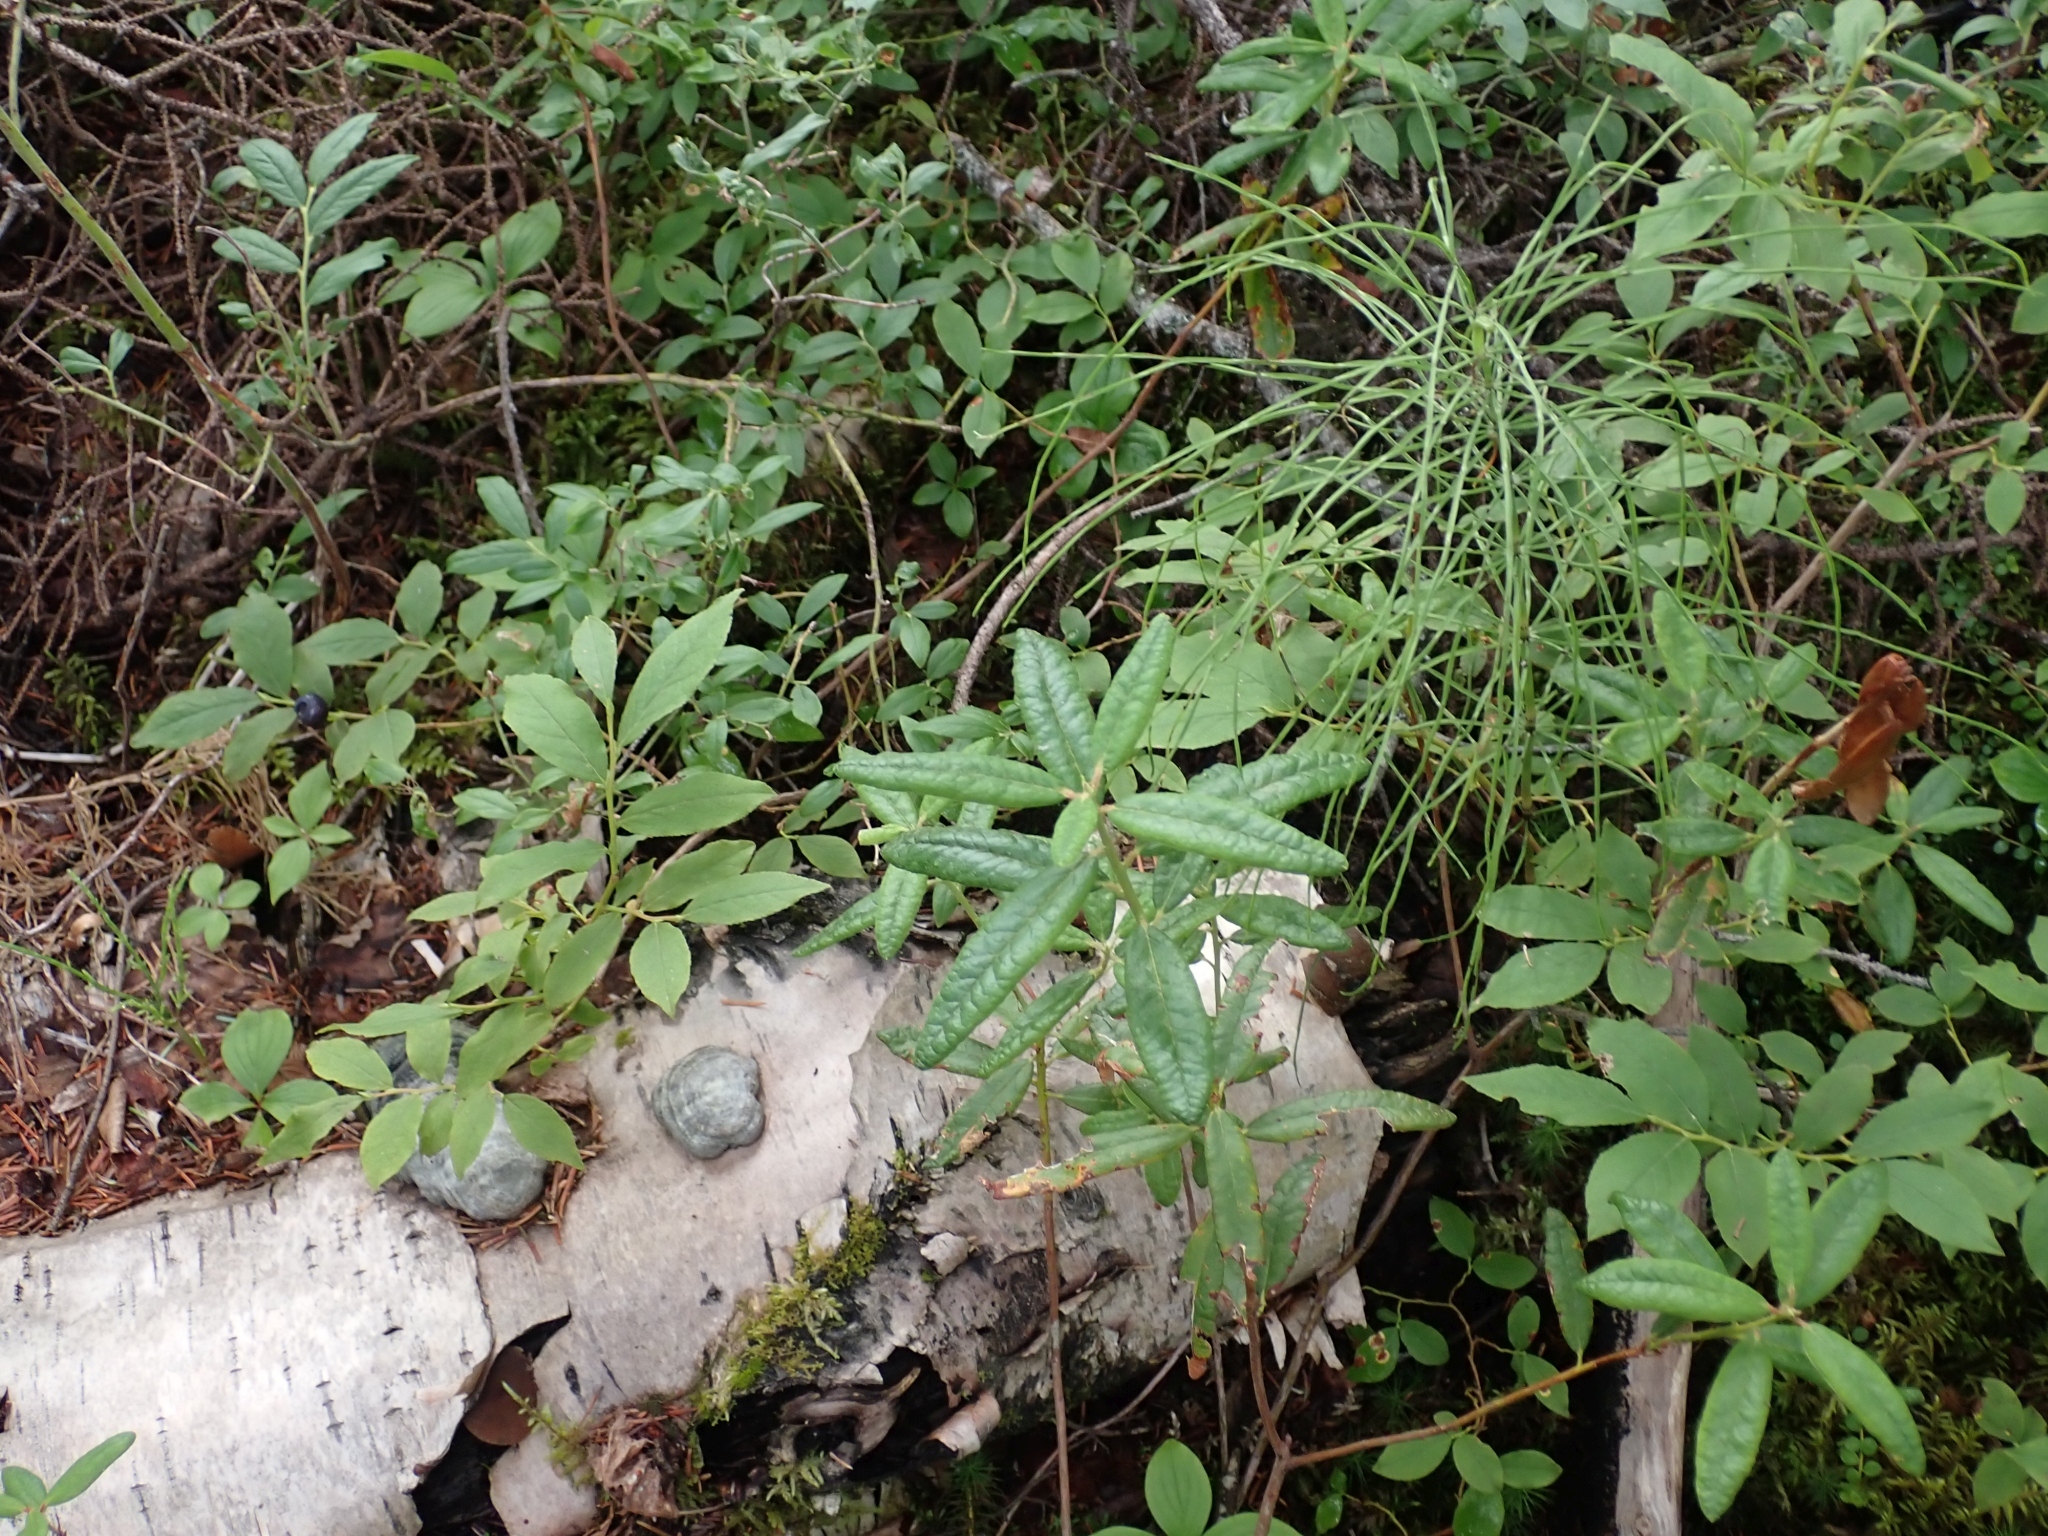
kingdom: Plantae
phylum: Tracheophyta
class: Magnoliopsida
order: Ericales
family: Ericaceae
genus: Rhododendron
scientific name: Rhododendron groenlandicum
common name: Bog labrador tea
